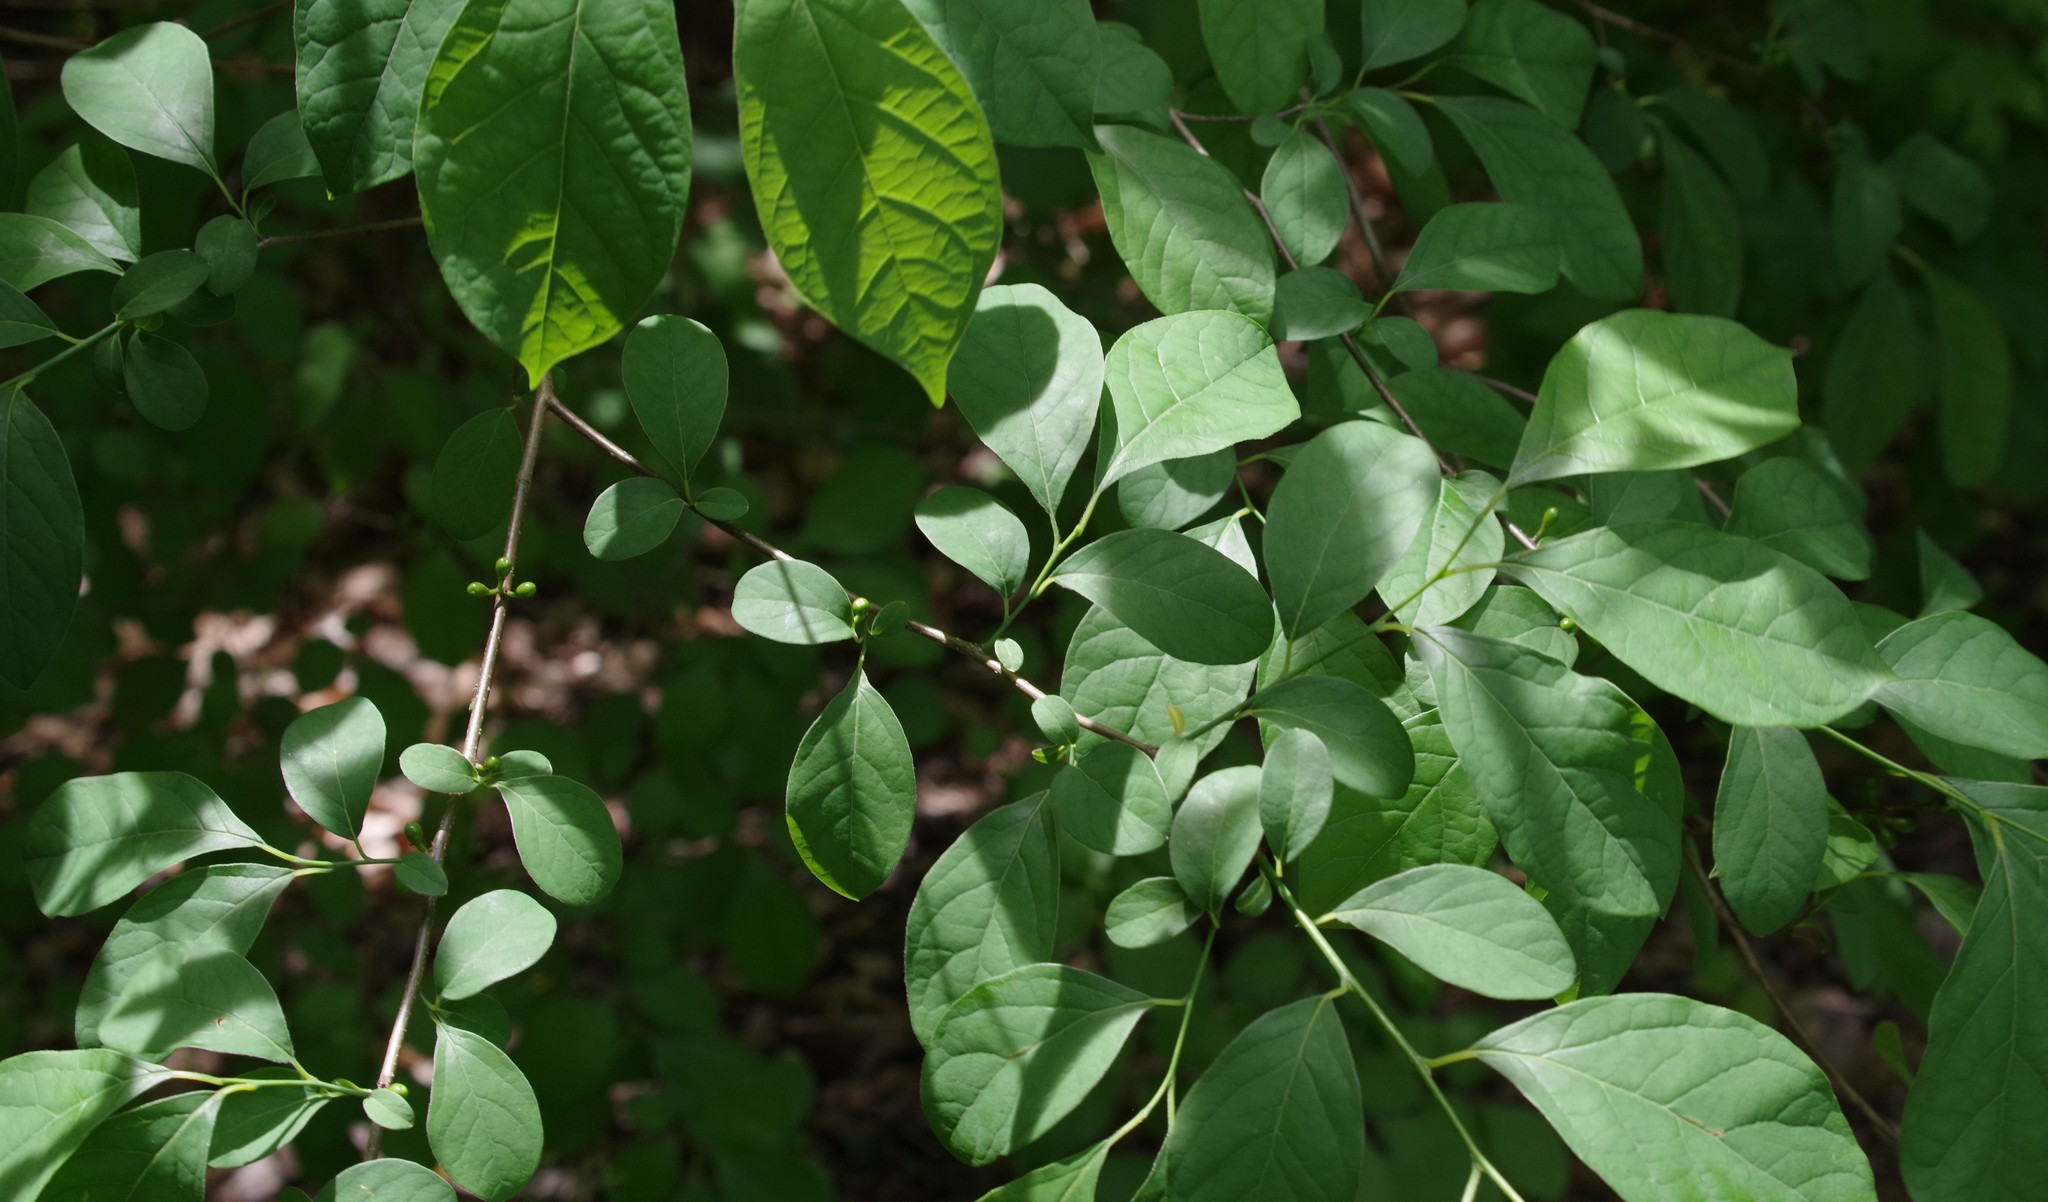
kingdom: Plantae
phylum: Tracheophyta
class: Magnoliopsida
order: Laurales
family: Lauraceae
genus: Lindera
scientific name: Lindera benzoin
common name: Spicebush
